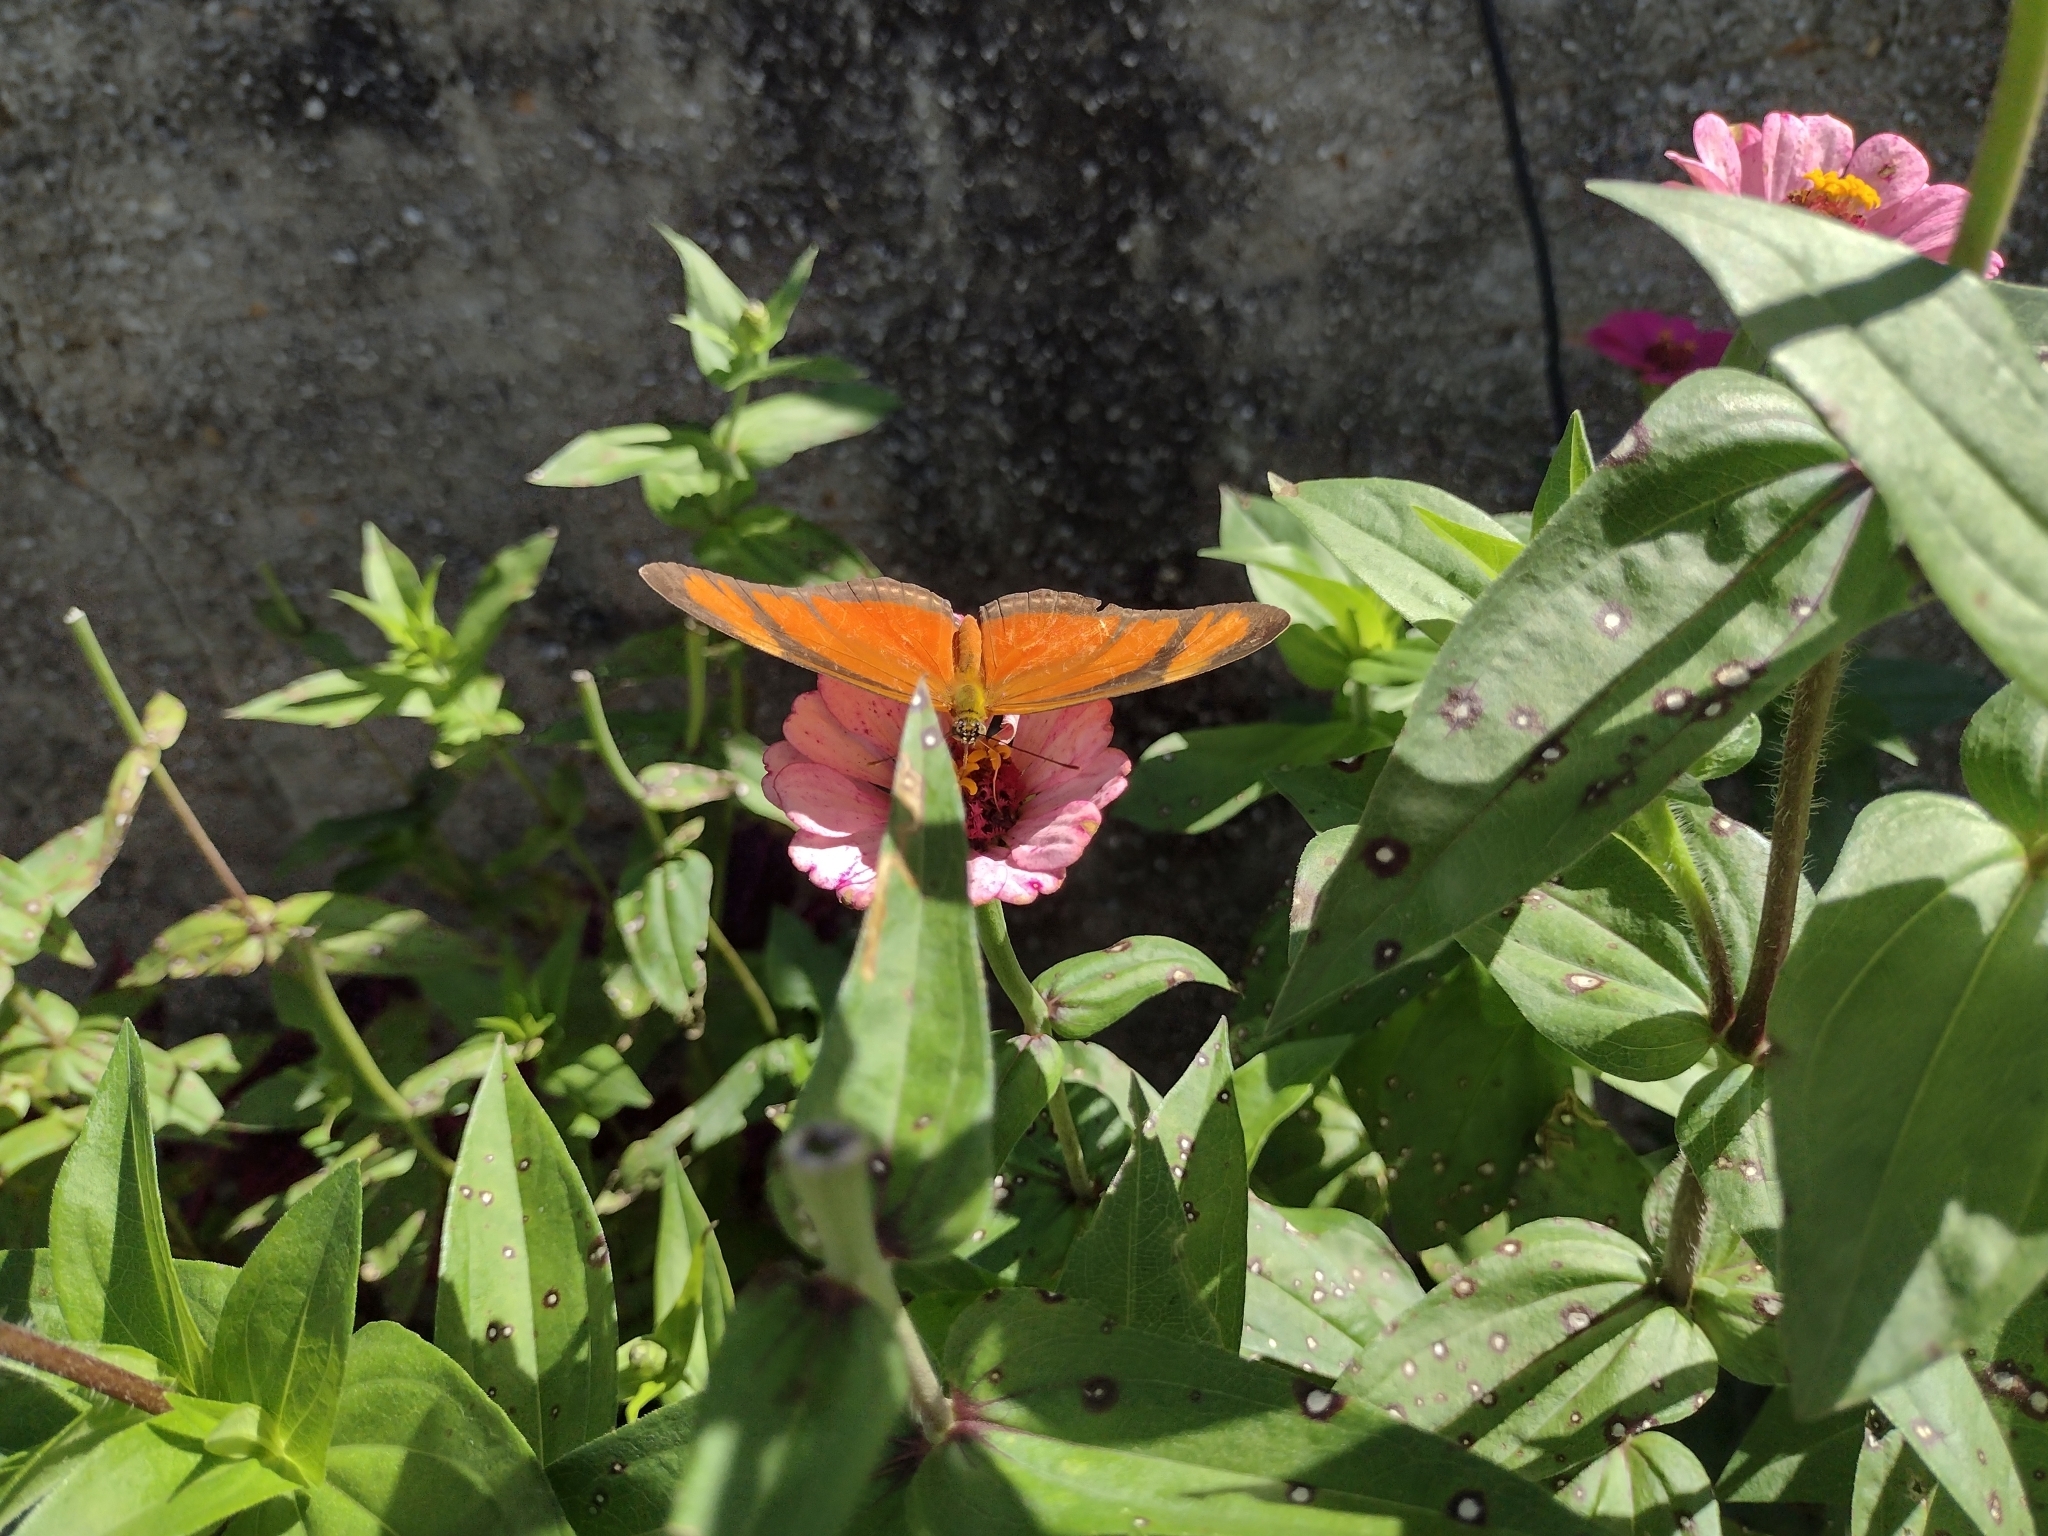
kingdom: Animalia
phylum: Arthropoda
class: Insecta
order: Lepidoptera
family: Nymphalidae
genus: Dryas
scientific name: Dryas iulia
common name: Flambeau
